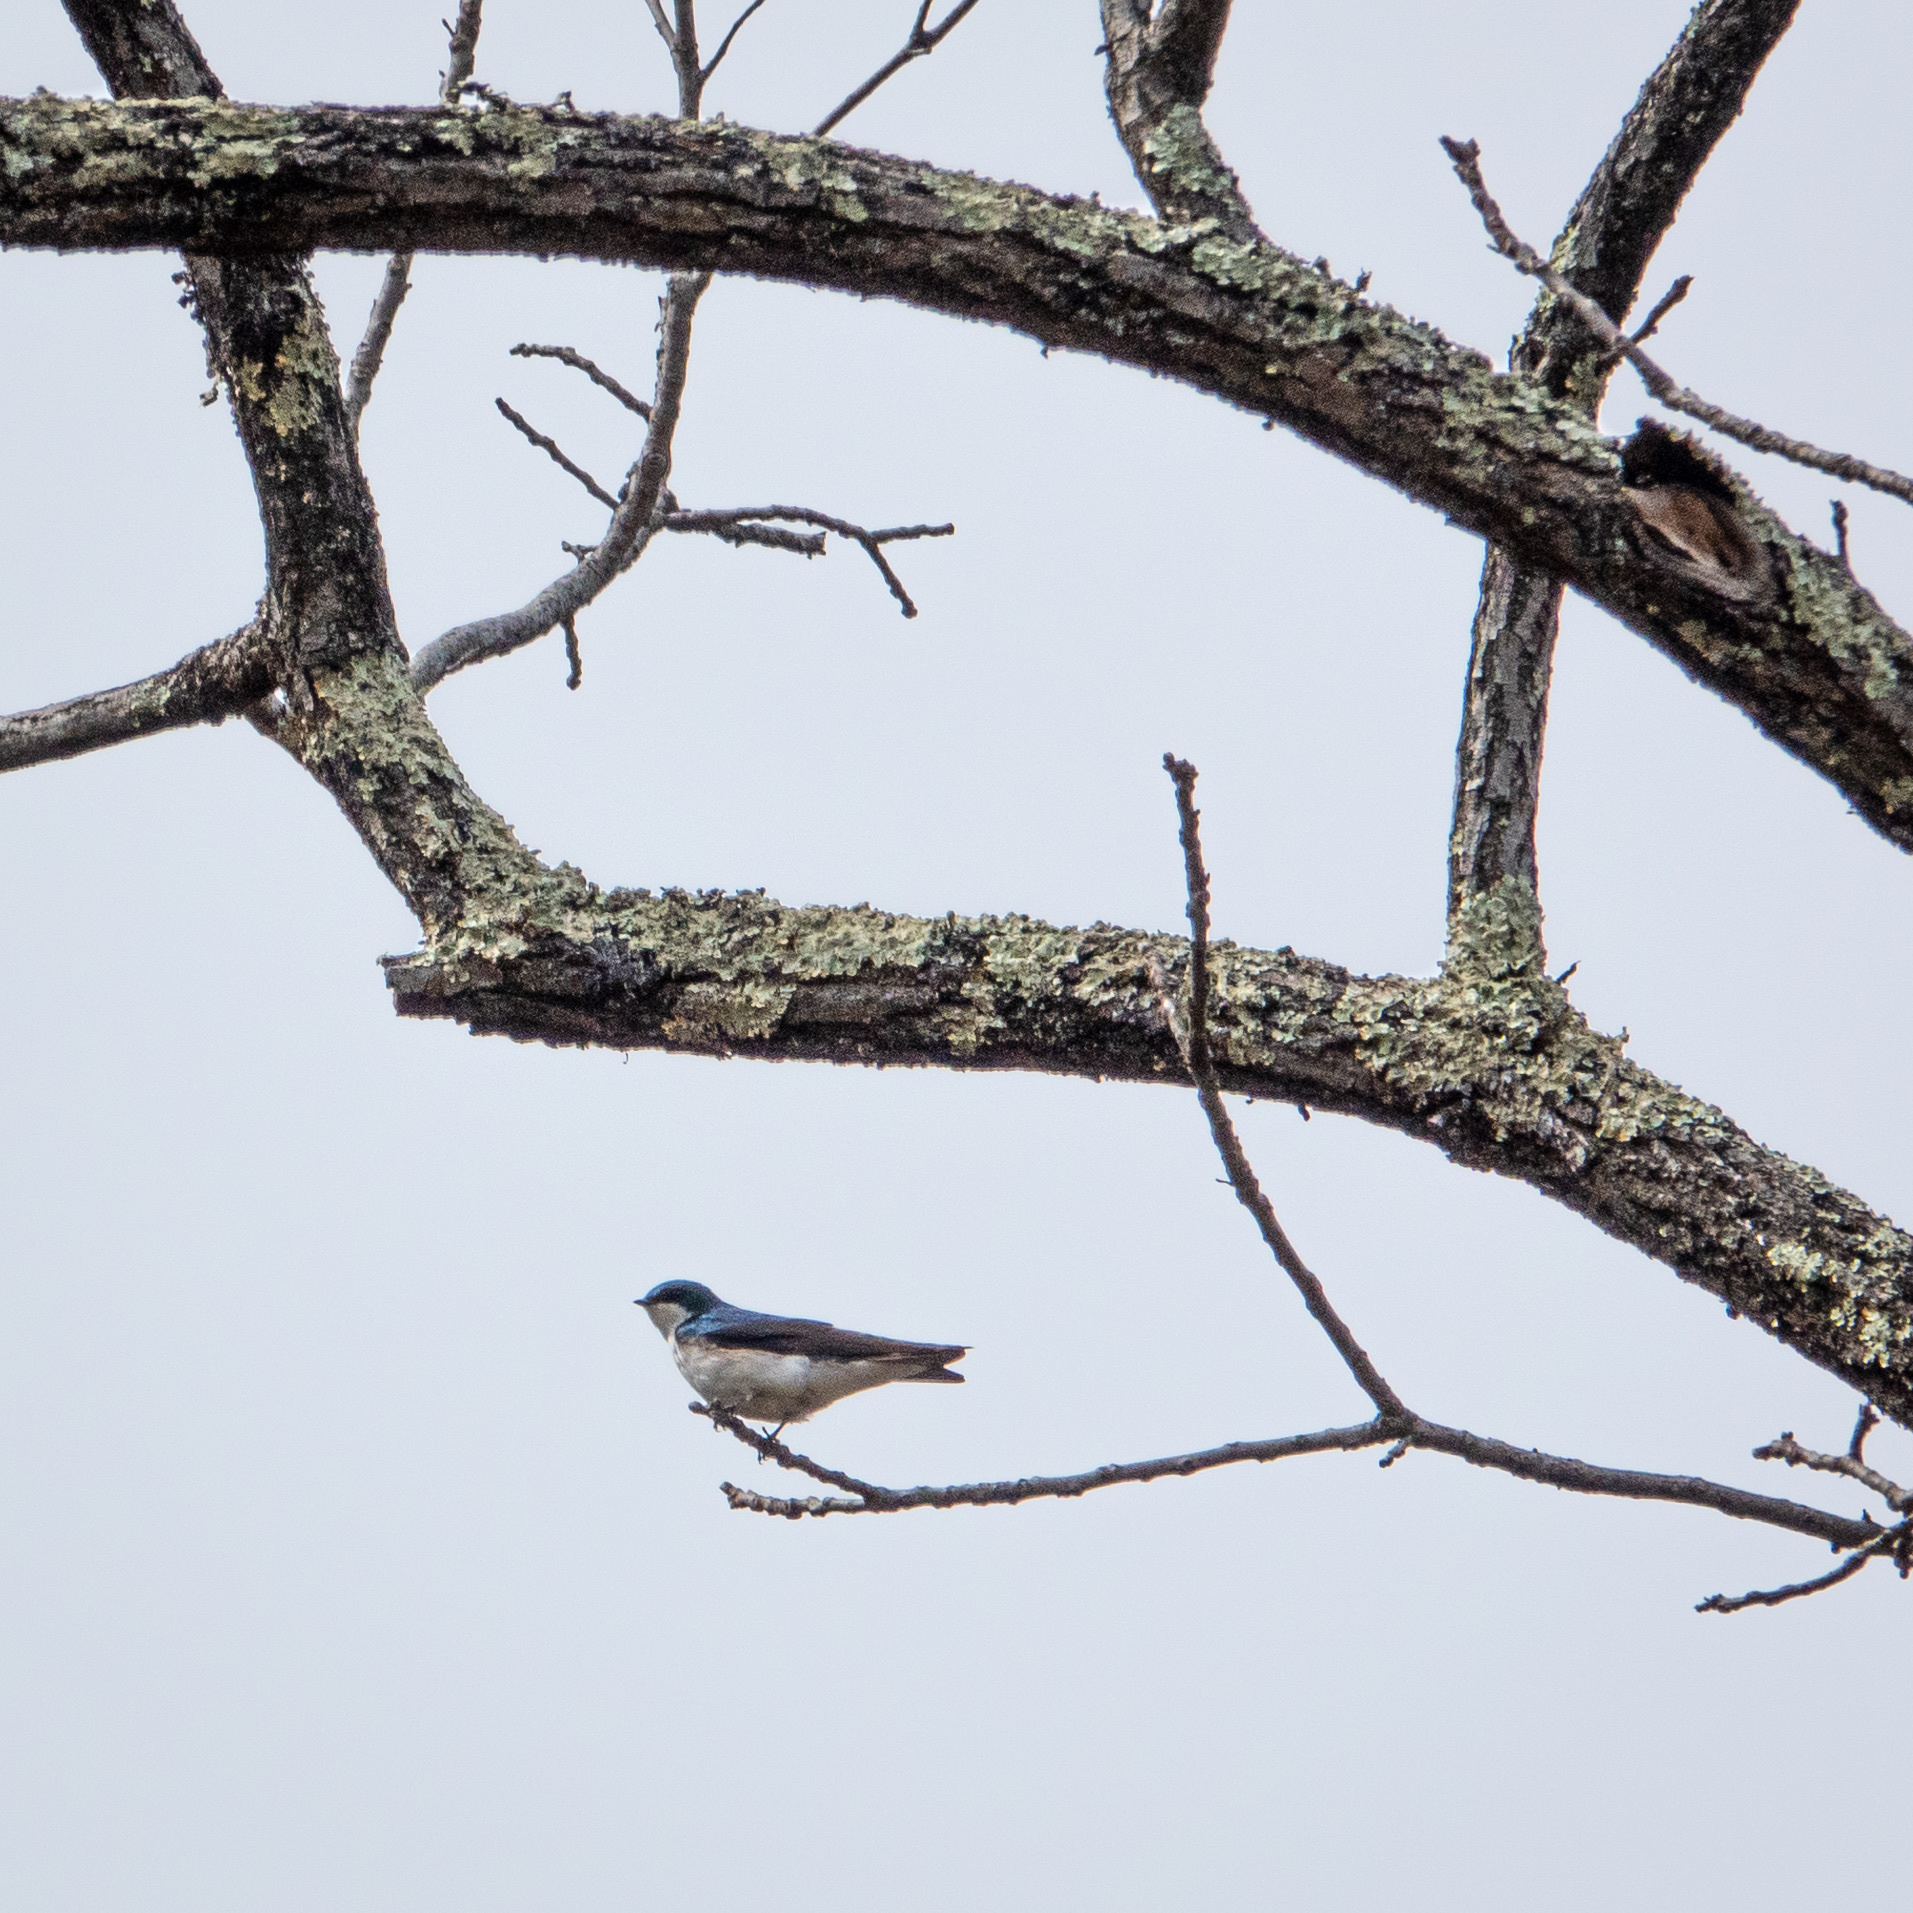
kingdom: Animalia
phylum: Chordata
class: Aves
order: Passeriformes
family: Hirundinidae
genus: Tachycineta
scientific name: Tachycineta bicolor
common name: Tree swallow
